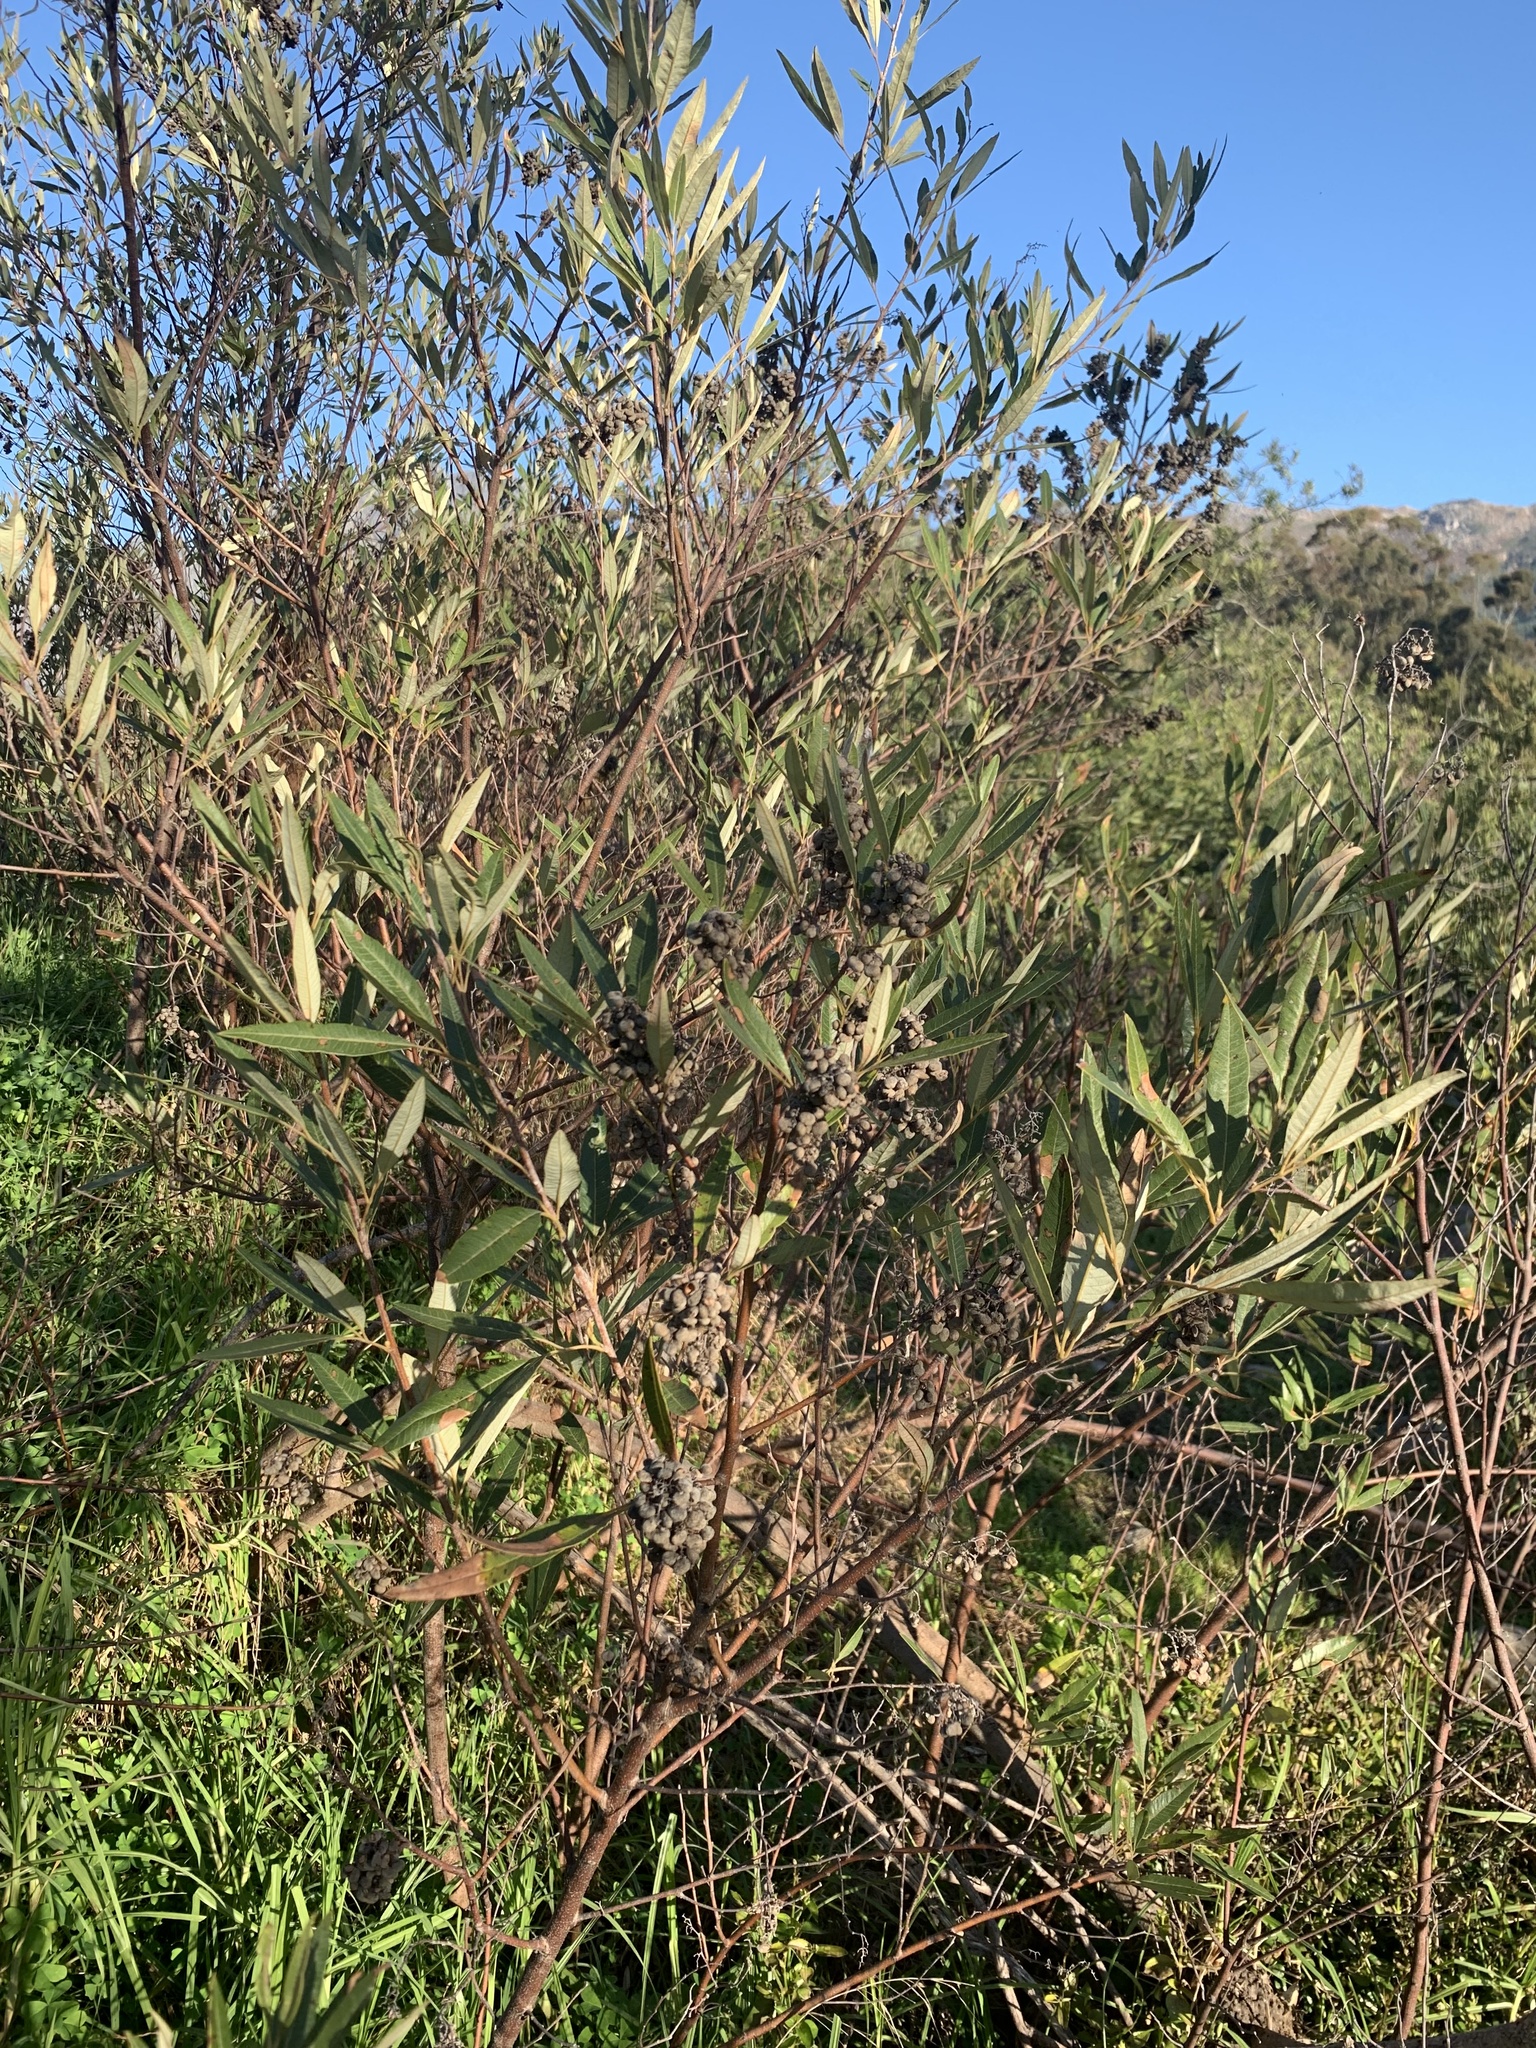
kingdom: Plantae
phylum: Tracheophyta
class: Magnoliopsida
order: Sapindales
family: Anacardiaceae
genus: Searsia
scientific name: Searsia angustifolia
